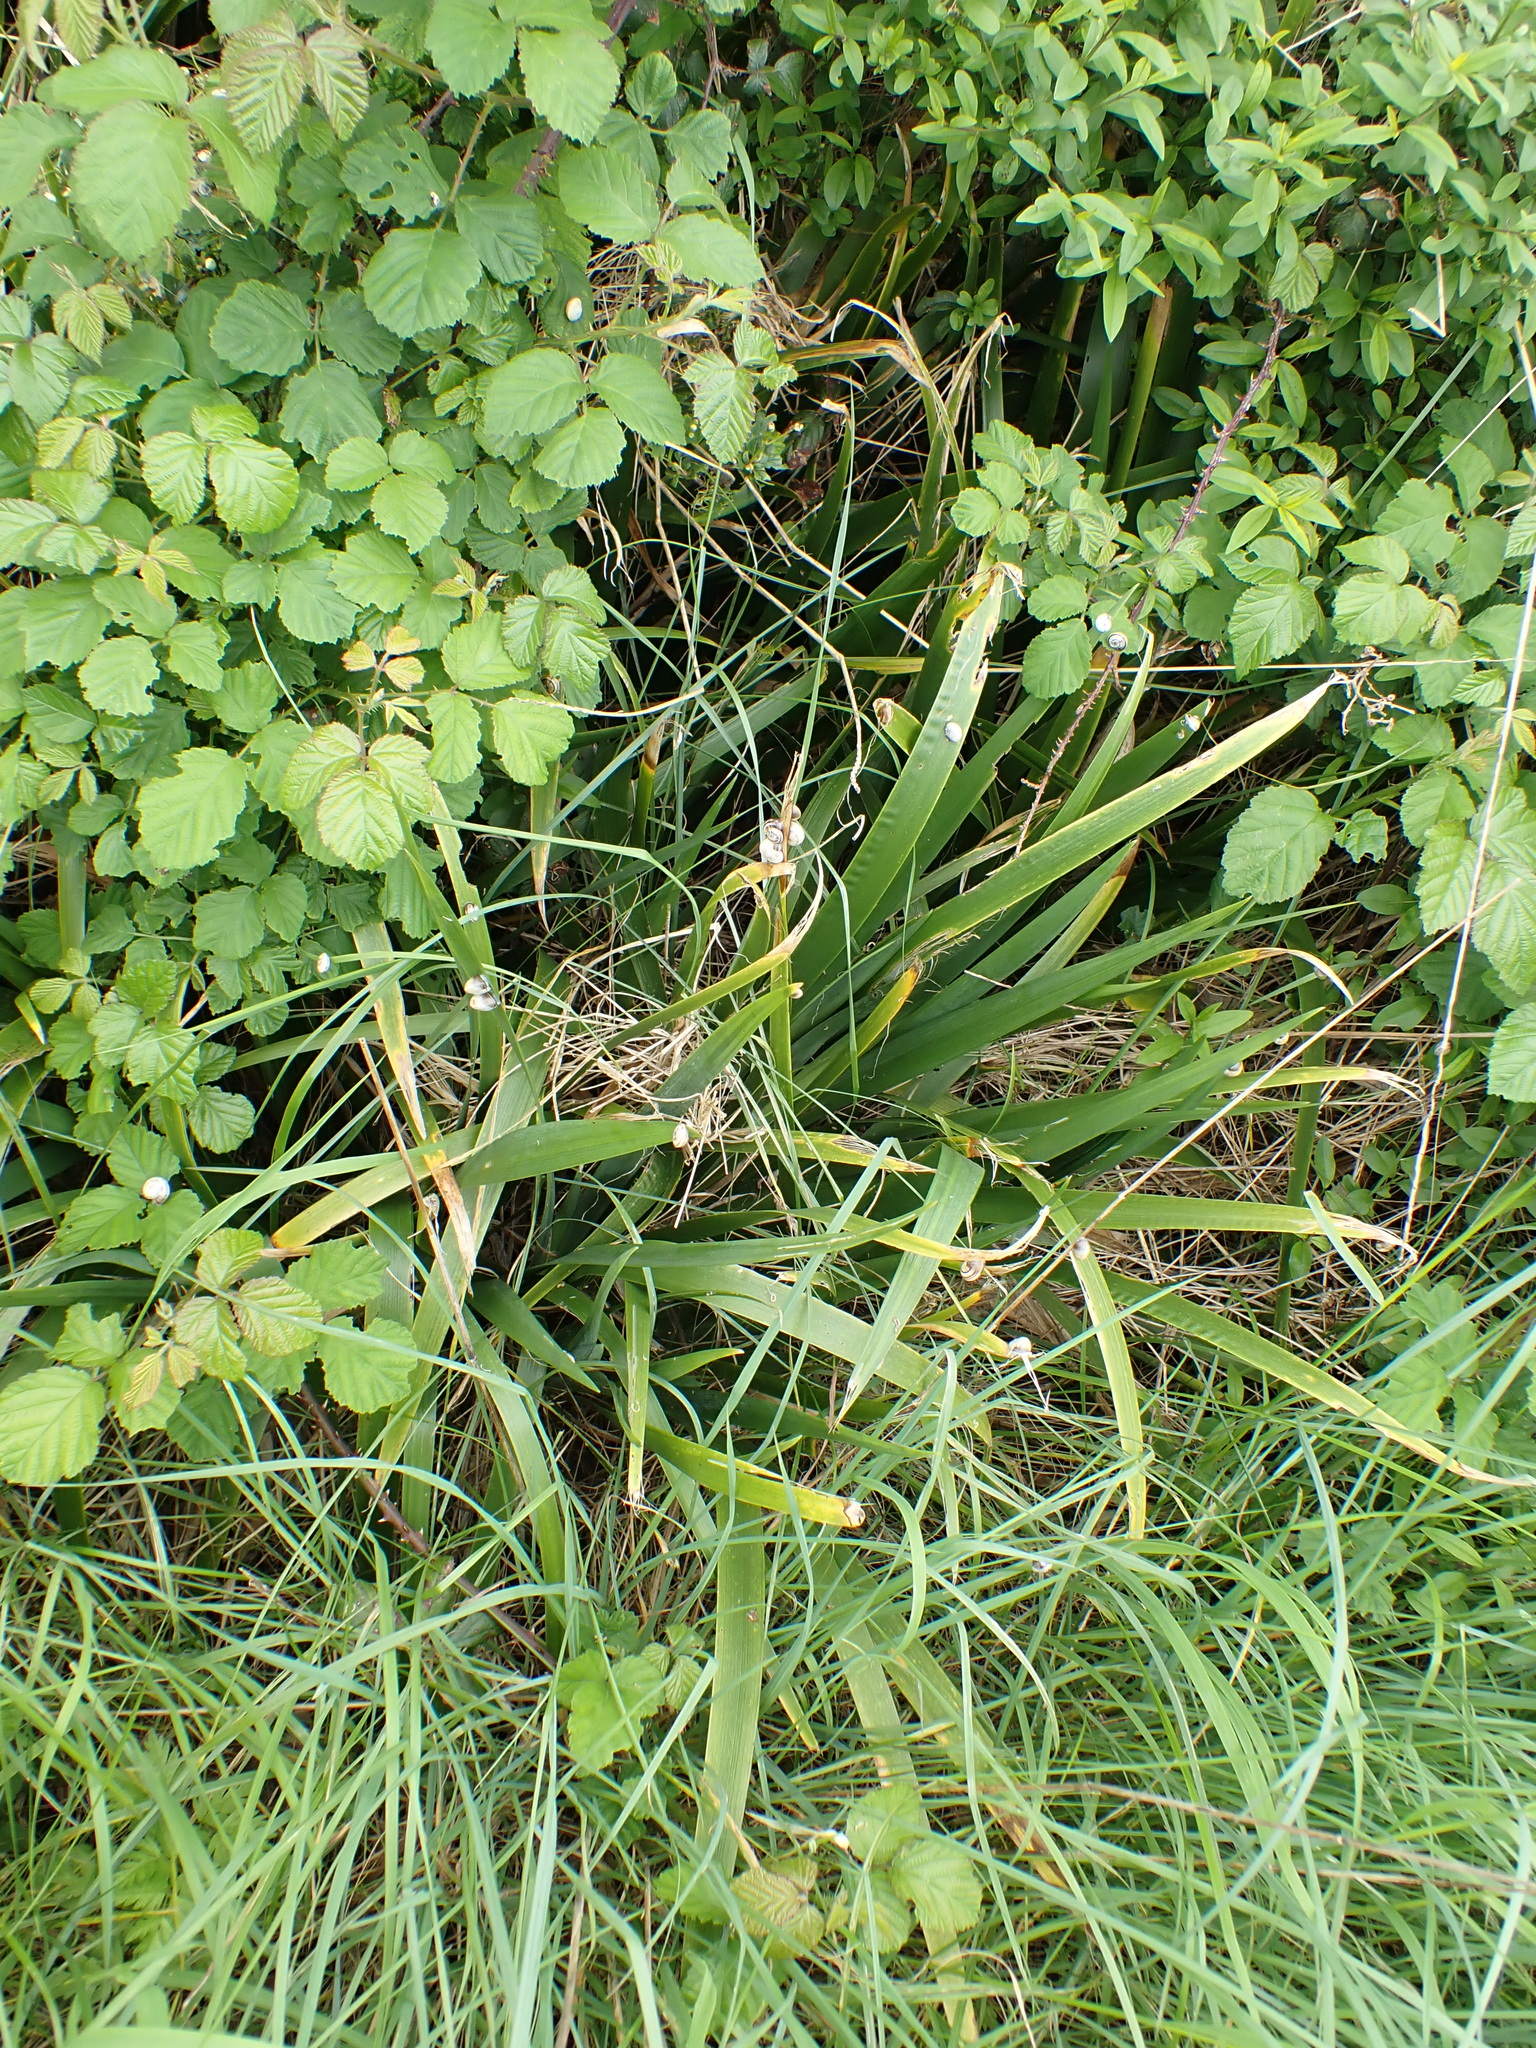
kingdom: Plantae
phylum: Tracheophyta
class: Liliopsida
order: Asparagales
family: Iridaceae
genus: Iris
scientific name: Iris foetidissima
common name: Stinking iris
